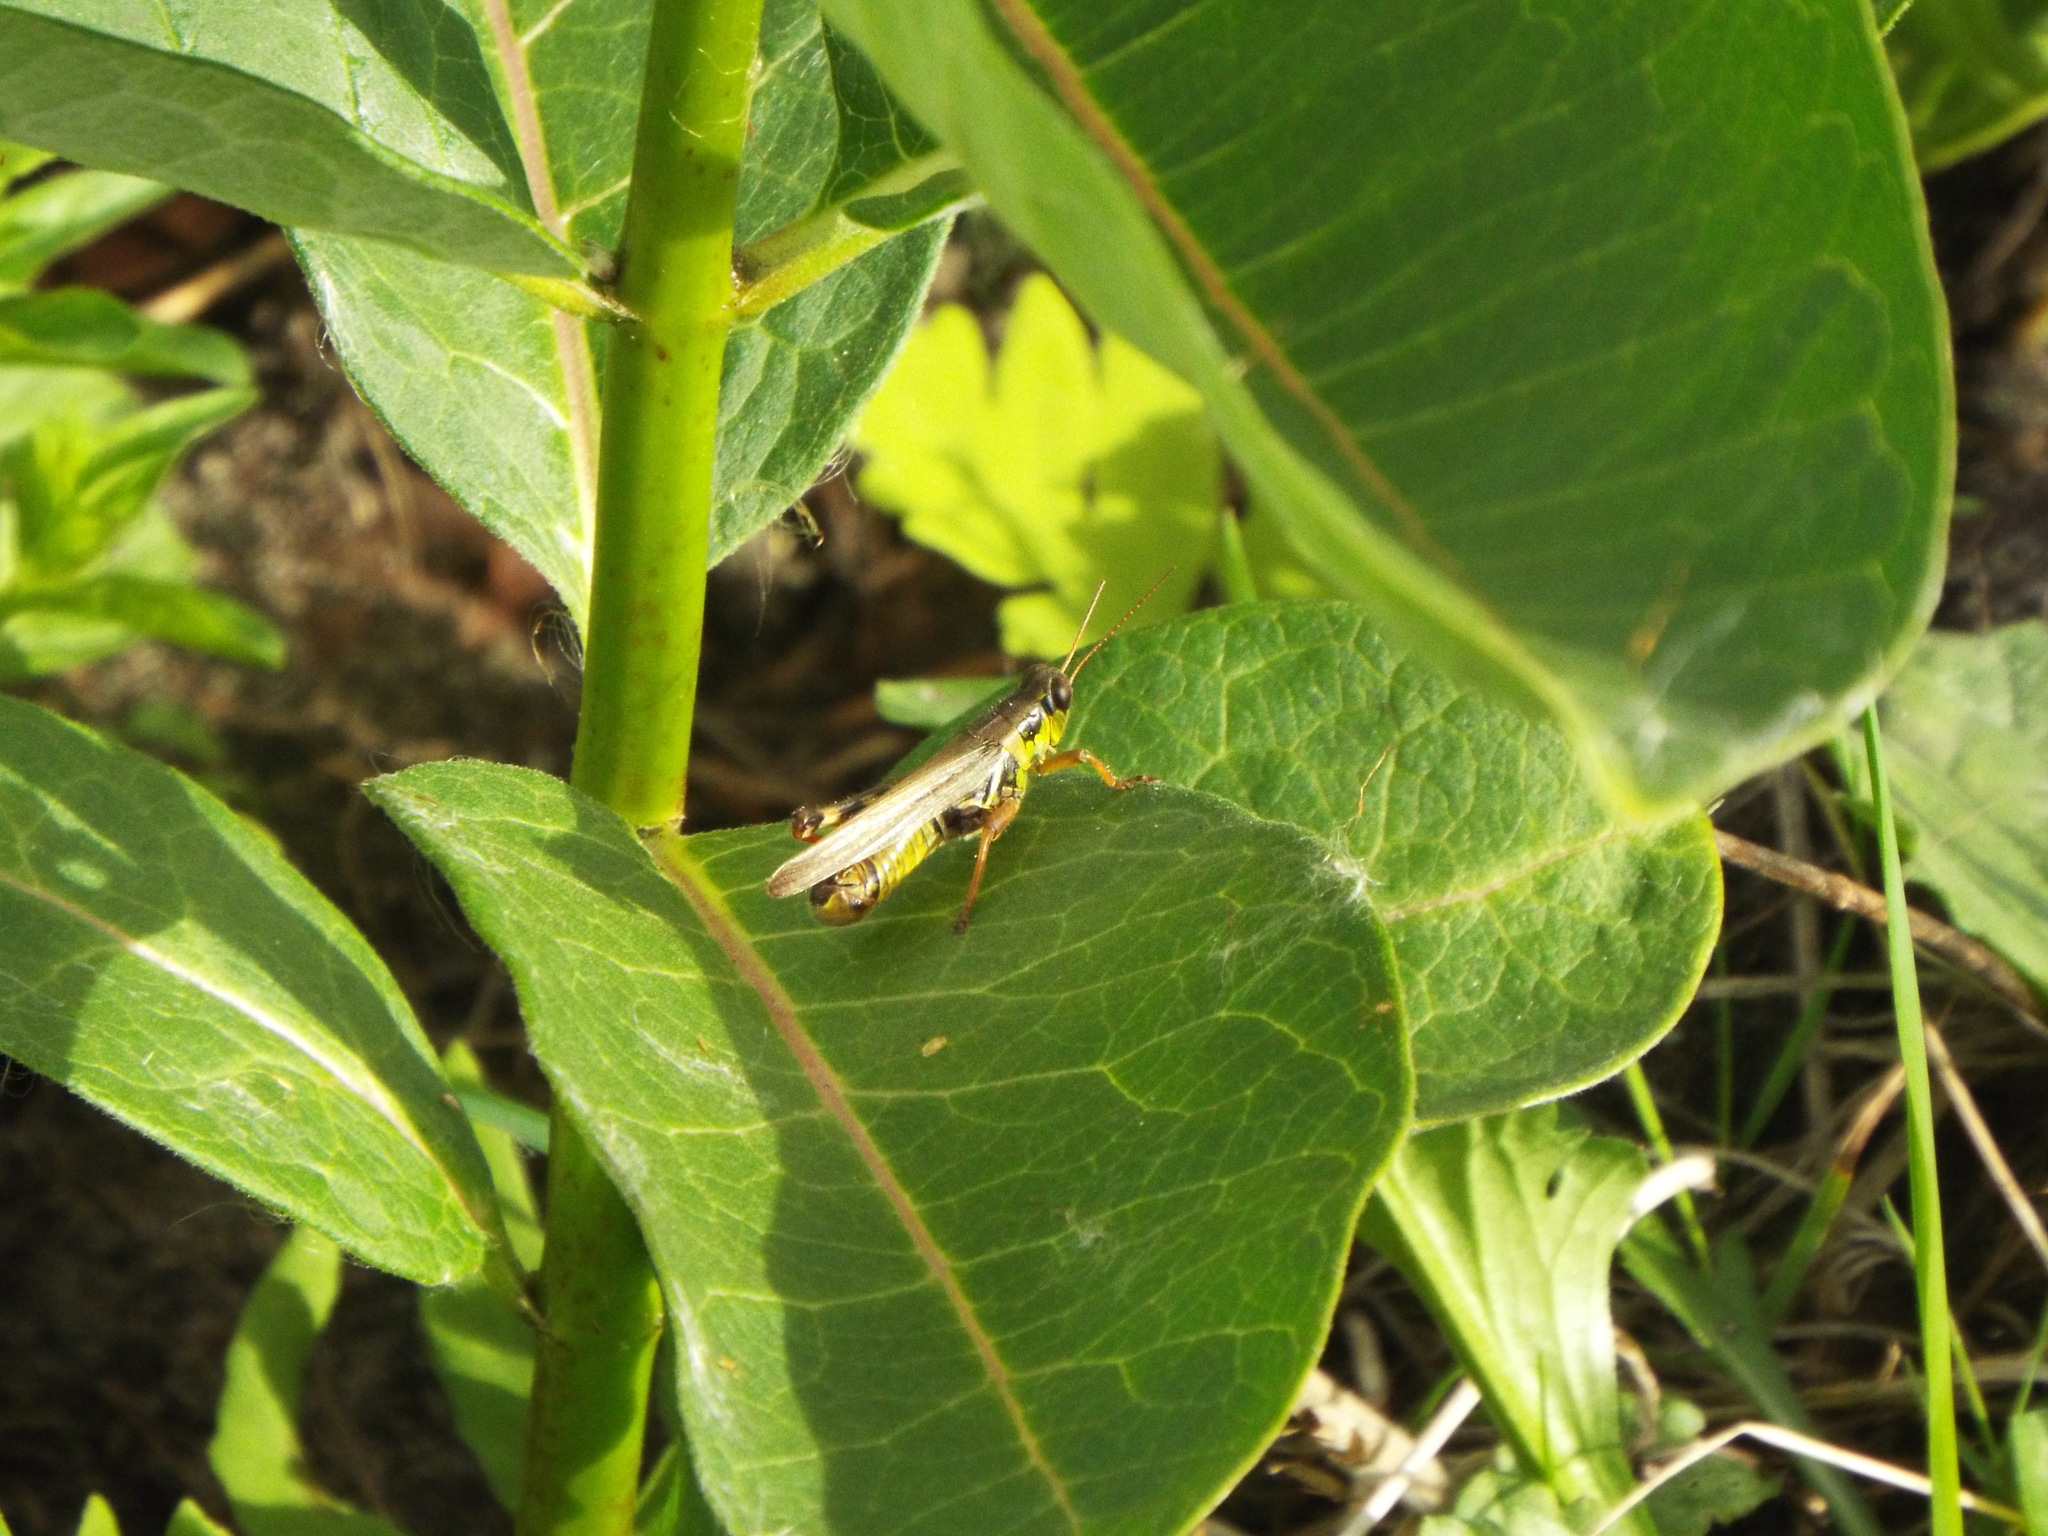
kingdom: Animalia
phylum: Arthropoda
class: Insecta
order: Orthoptera
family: Acrididae
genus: Melanoplus
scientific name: Melanoplus femurrubrum
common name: Red-legged grasshopper
